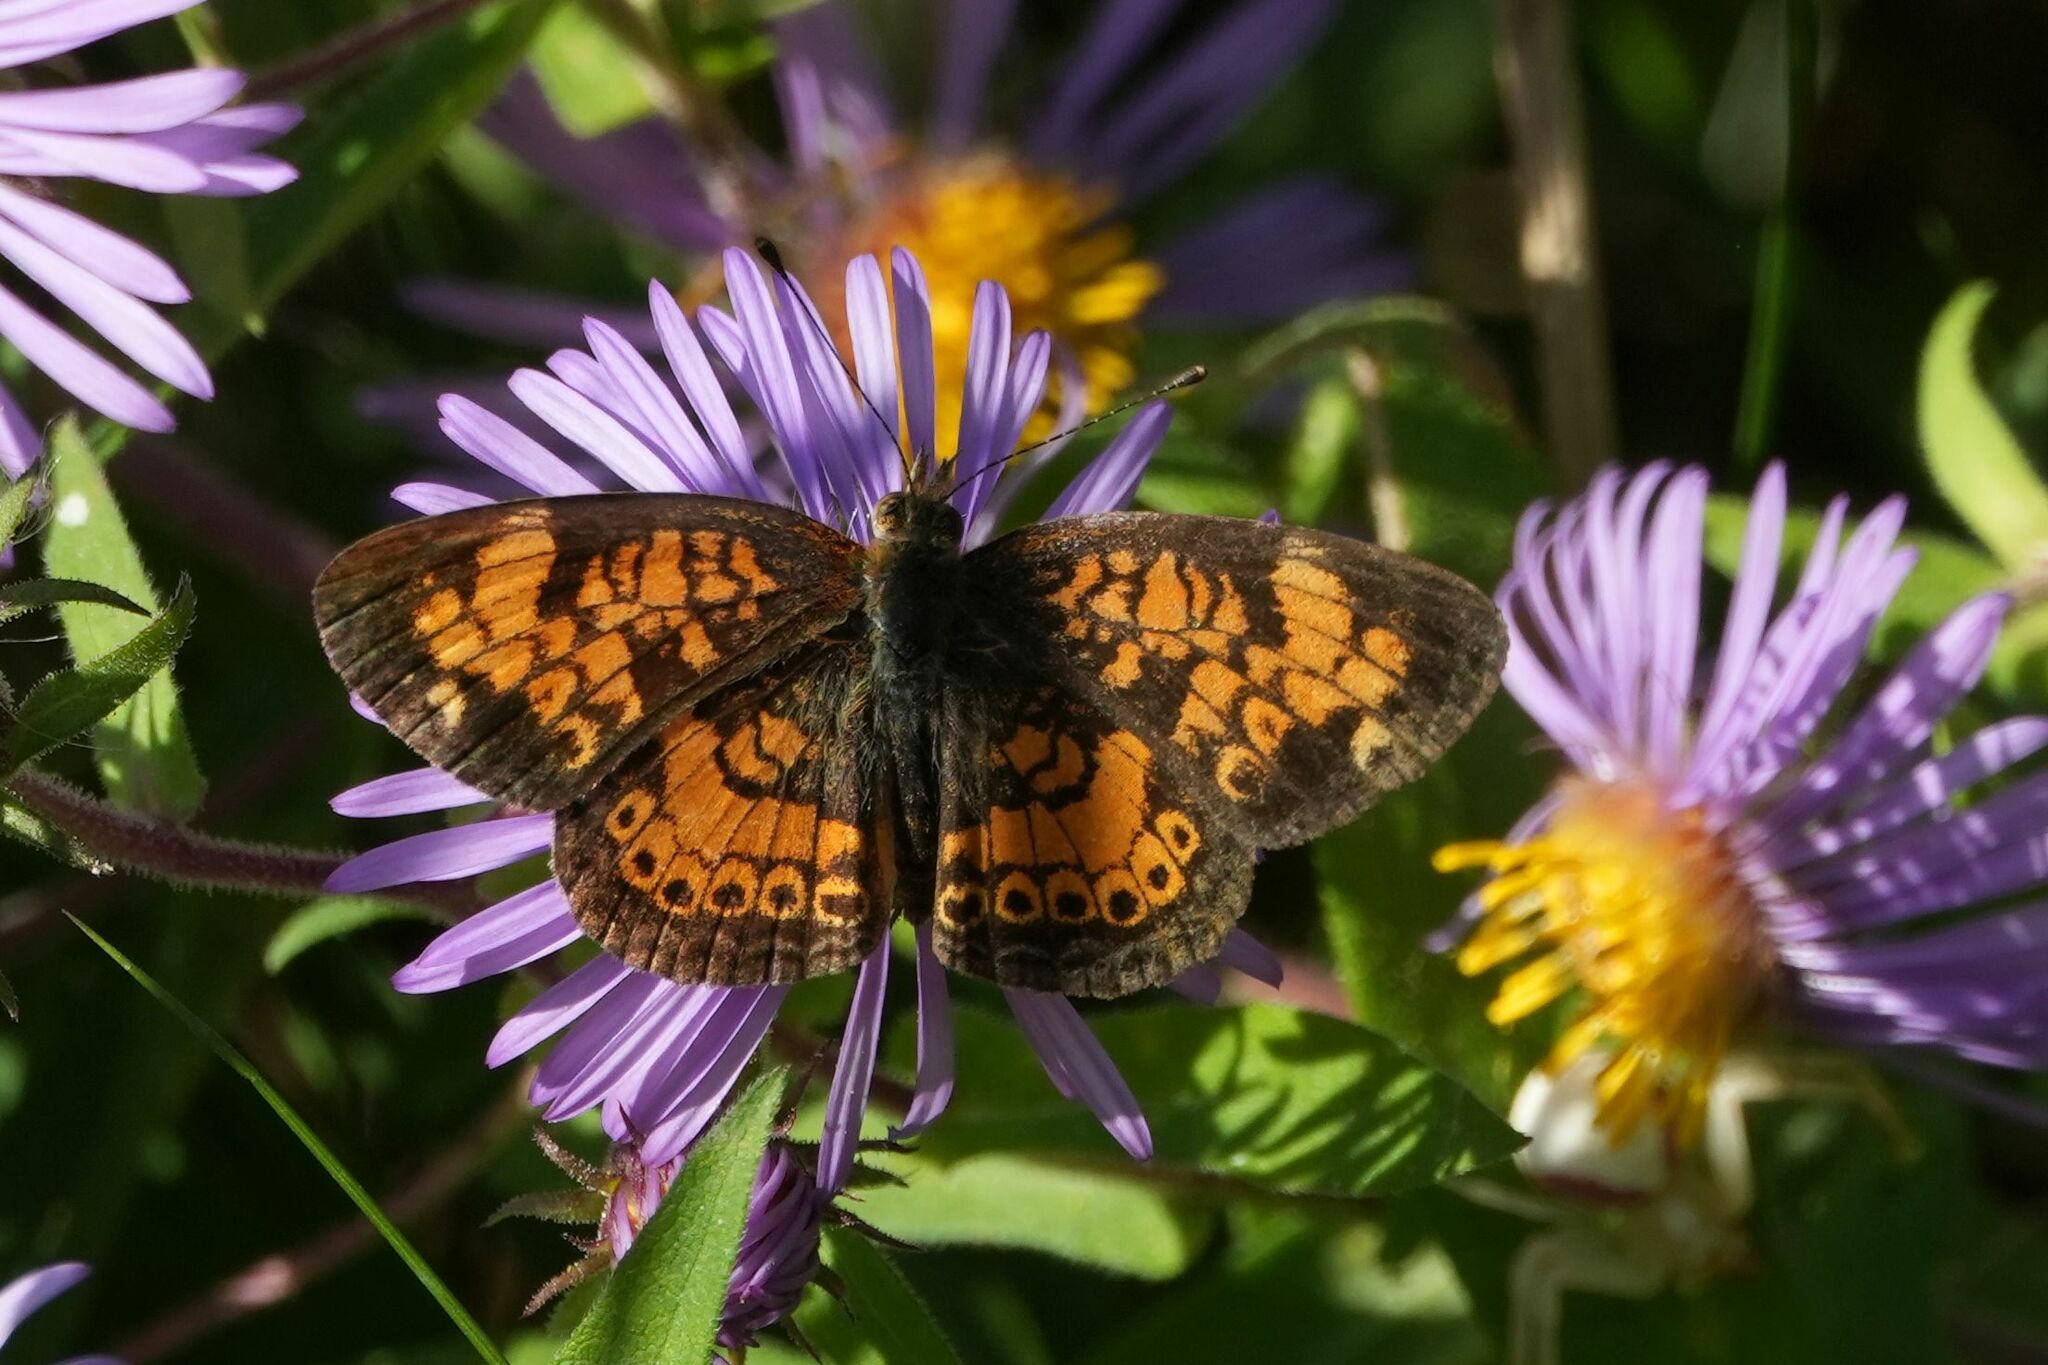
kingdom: Animalia
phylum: Arthropoda
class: Insecta
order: Lepidoptera
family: Nymphalidae
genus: Phyciodes
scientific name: Phyciodes tharos
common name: Pearl crescent
